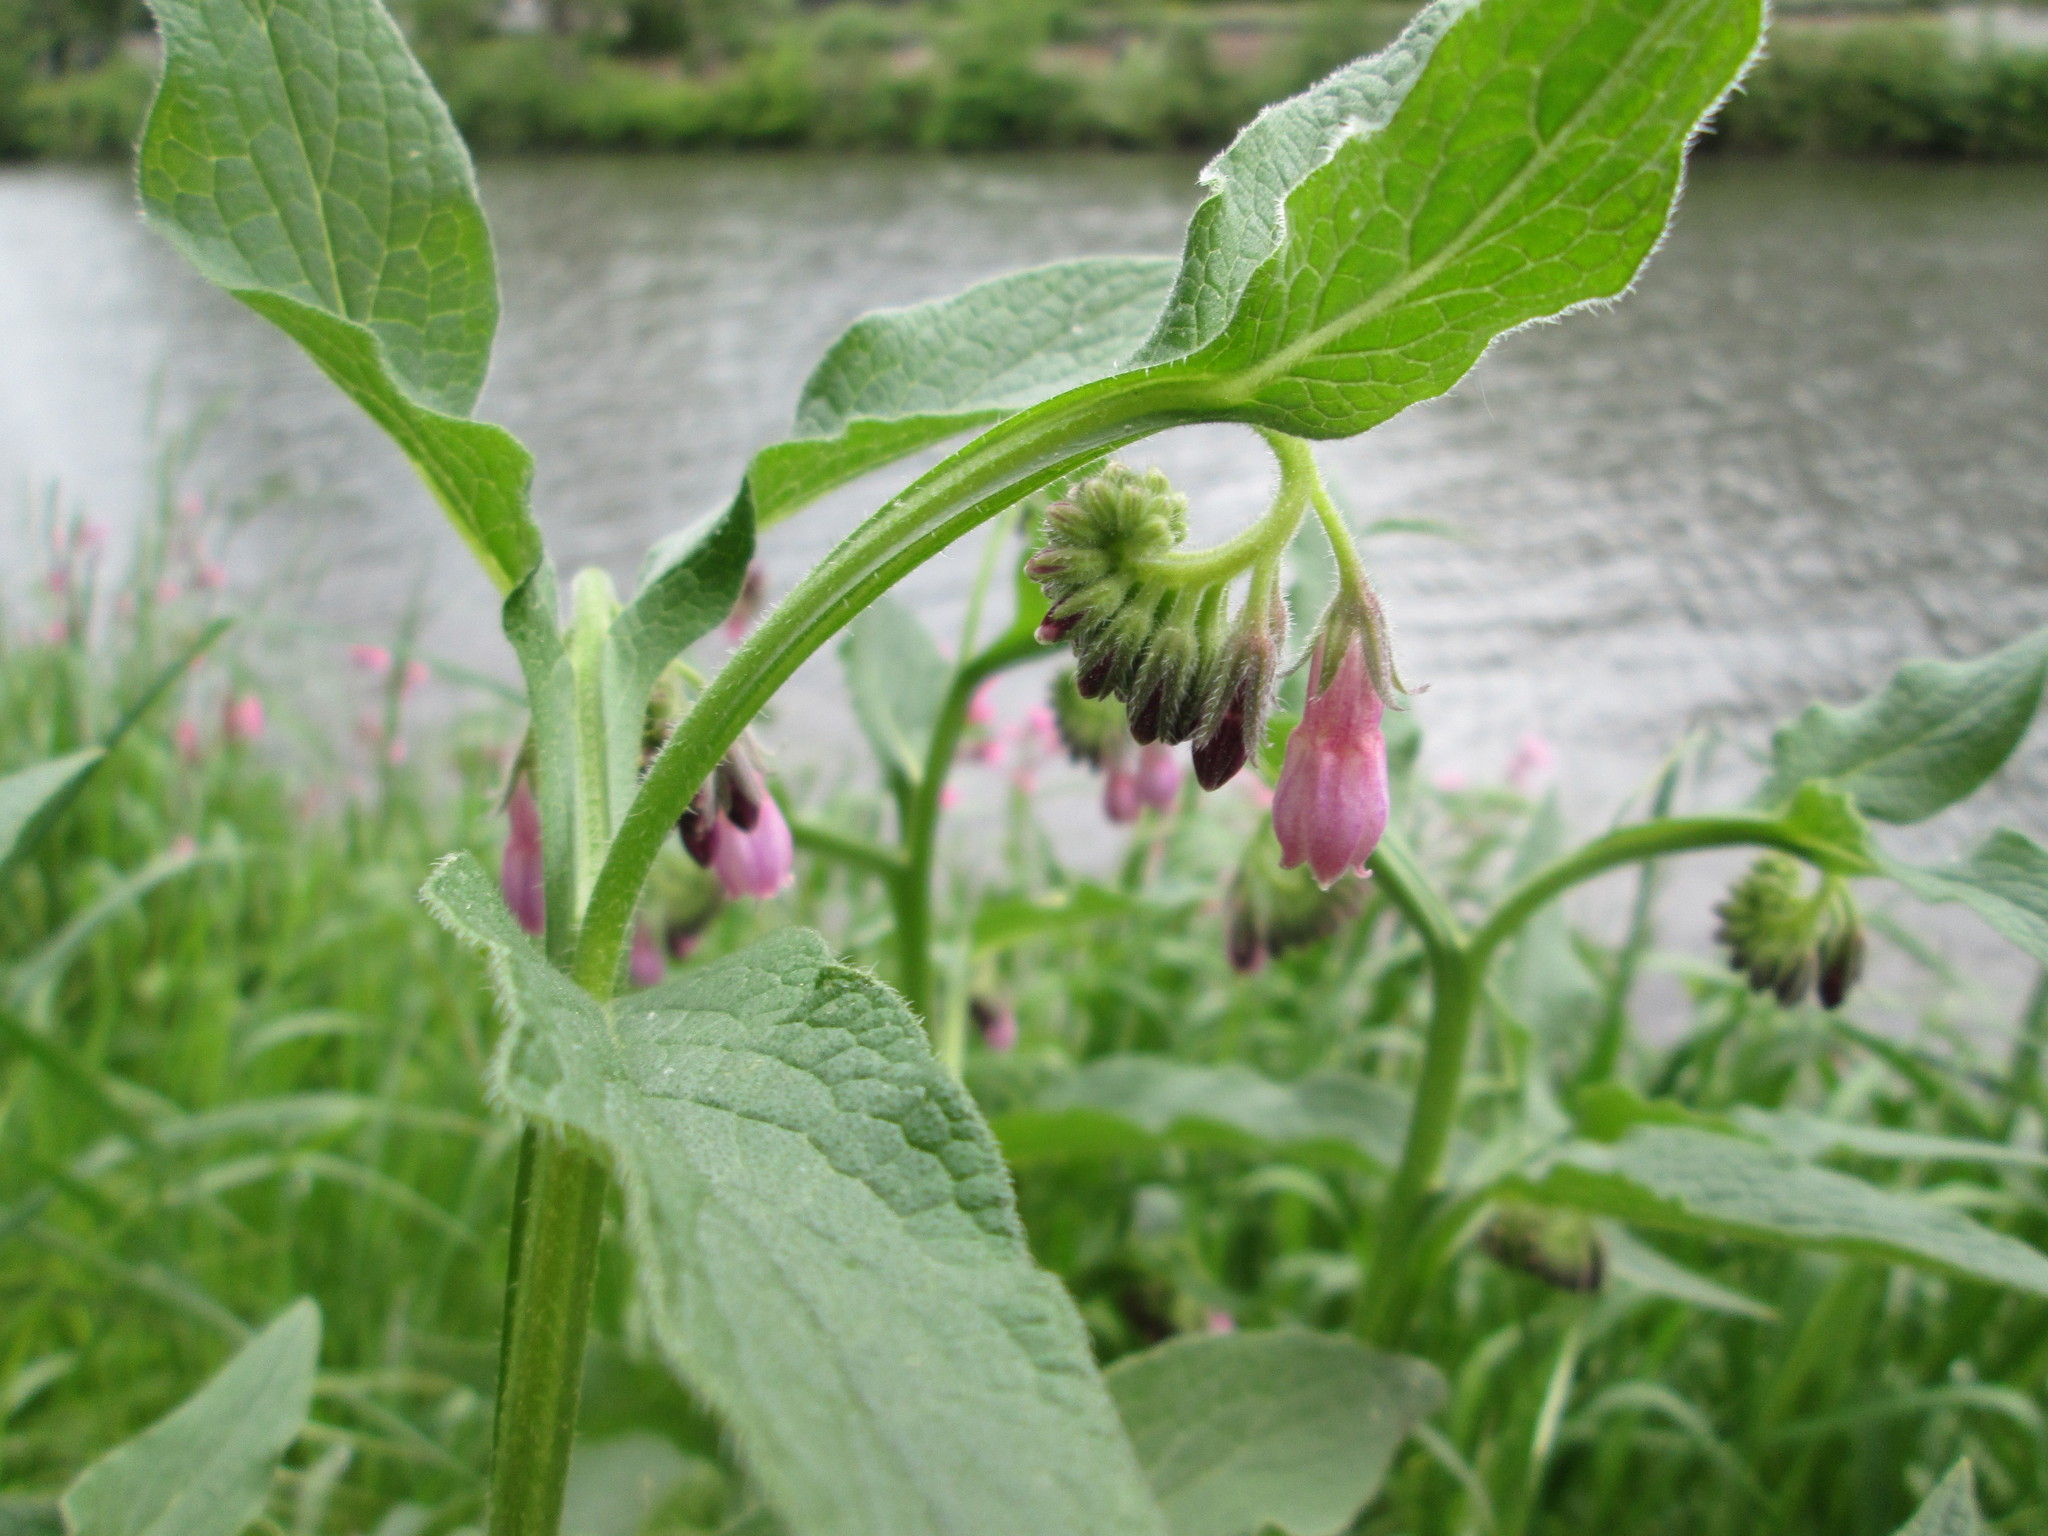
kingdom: Plantae
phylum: Tracheophyta
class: Magnoliopsida
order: Boraginales
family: Boraginaceae
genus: Symphytum
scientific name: Symphytum officinale
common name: Common comfrey
